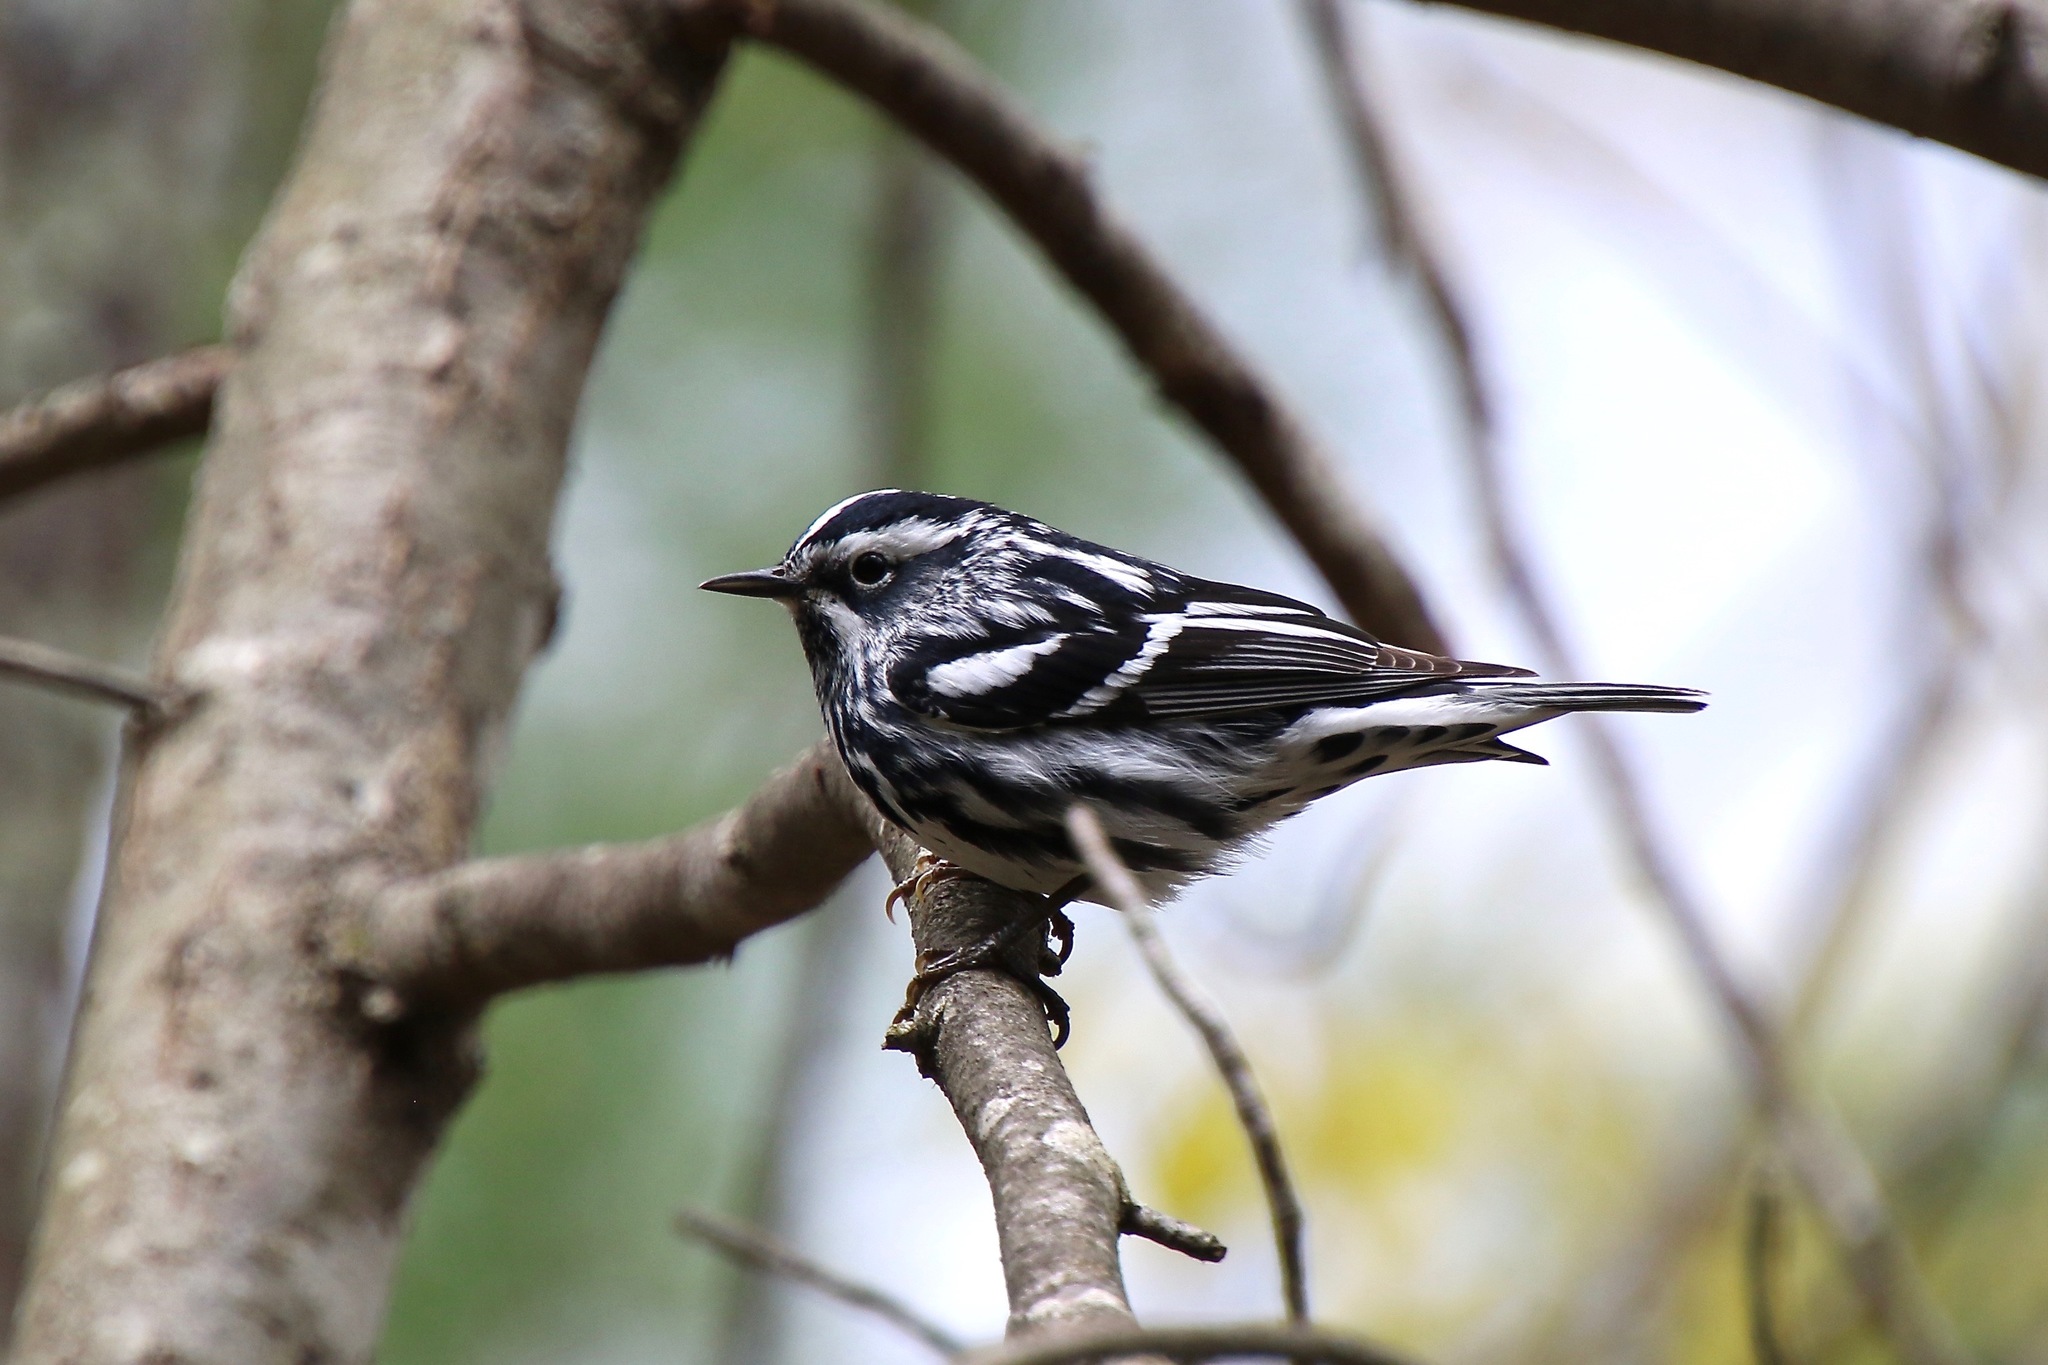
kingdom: Animalia
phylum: Chordata
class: Aves
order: Passeriformes
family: Parulidae
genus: Mniotilta
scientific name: Mniotilta varia
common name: Black-and-white warbler
